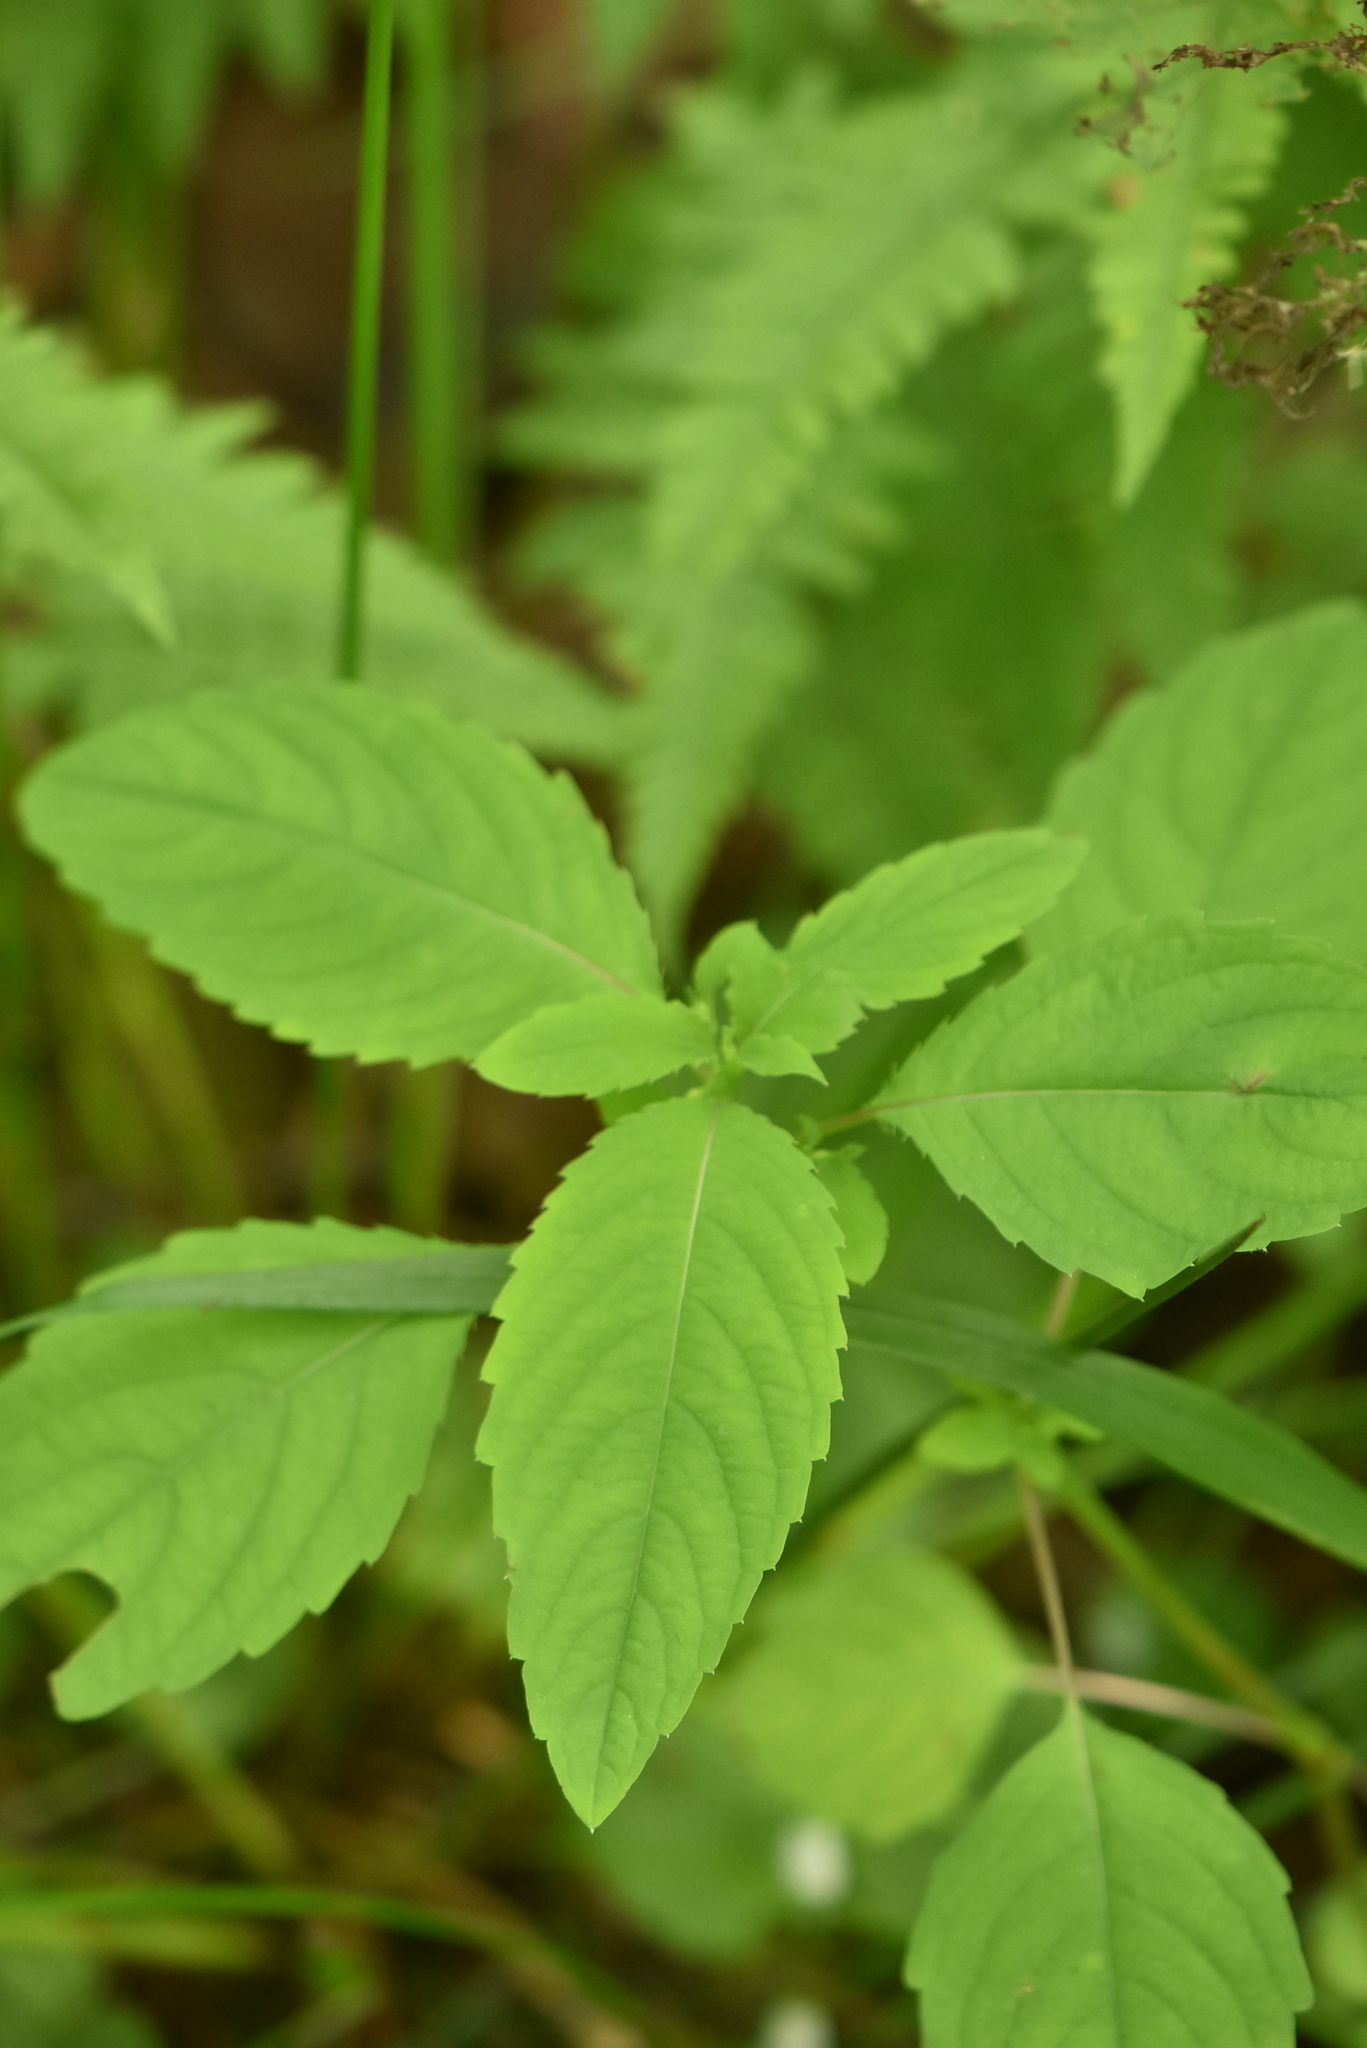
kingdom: Plantae
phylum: Tracheophyta
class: Magnoliopsida
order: Ericales
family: Balsaminaceae
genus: Impatiens
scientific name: Impatiens noli-tangere
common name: Touch-me-not balsam
